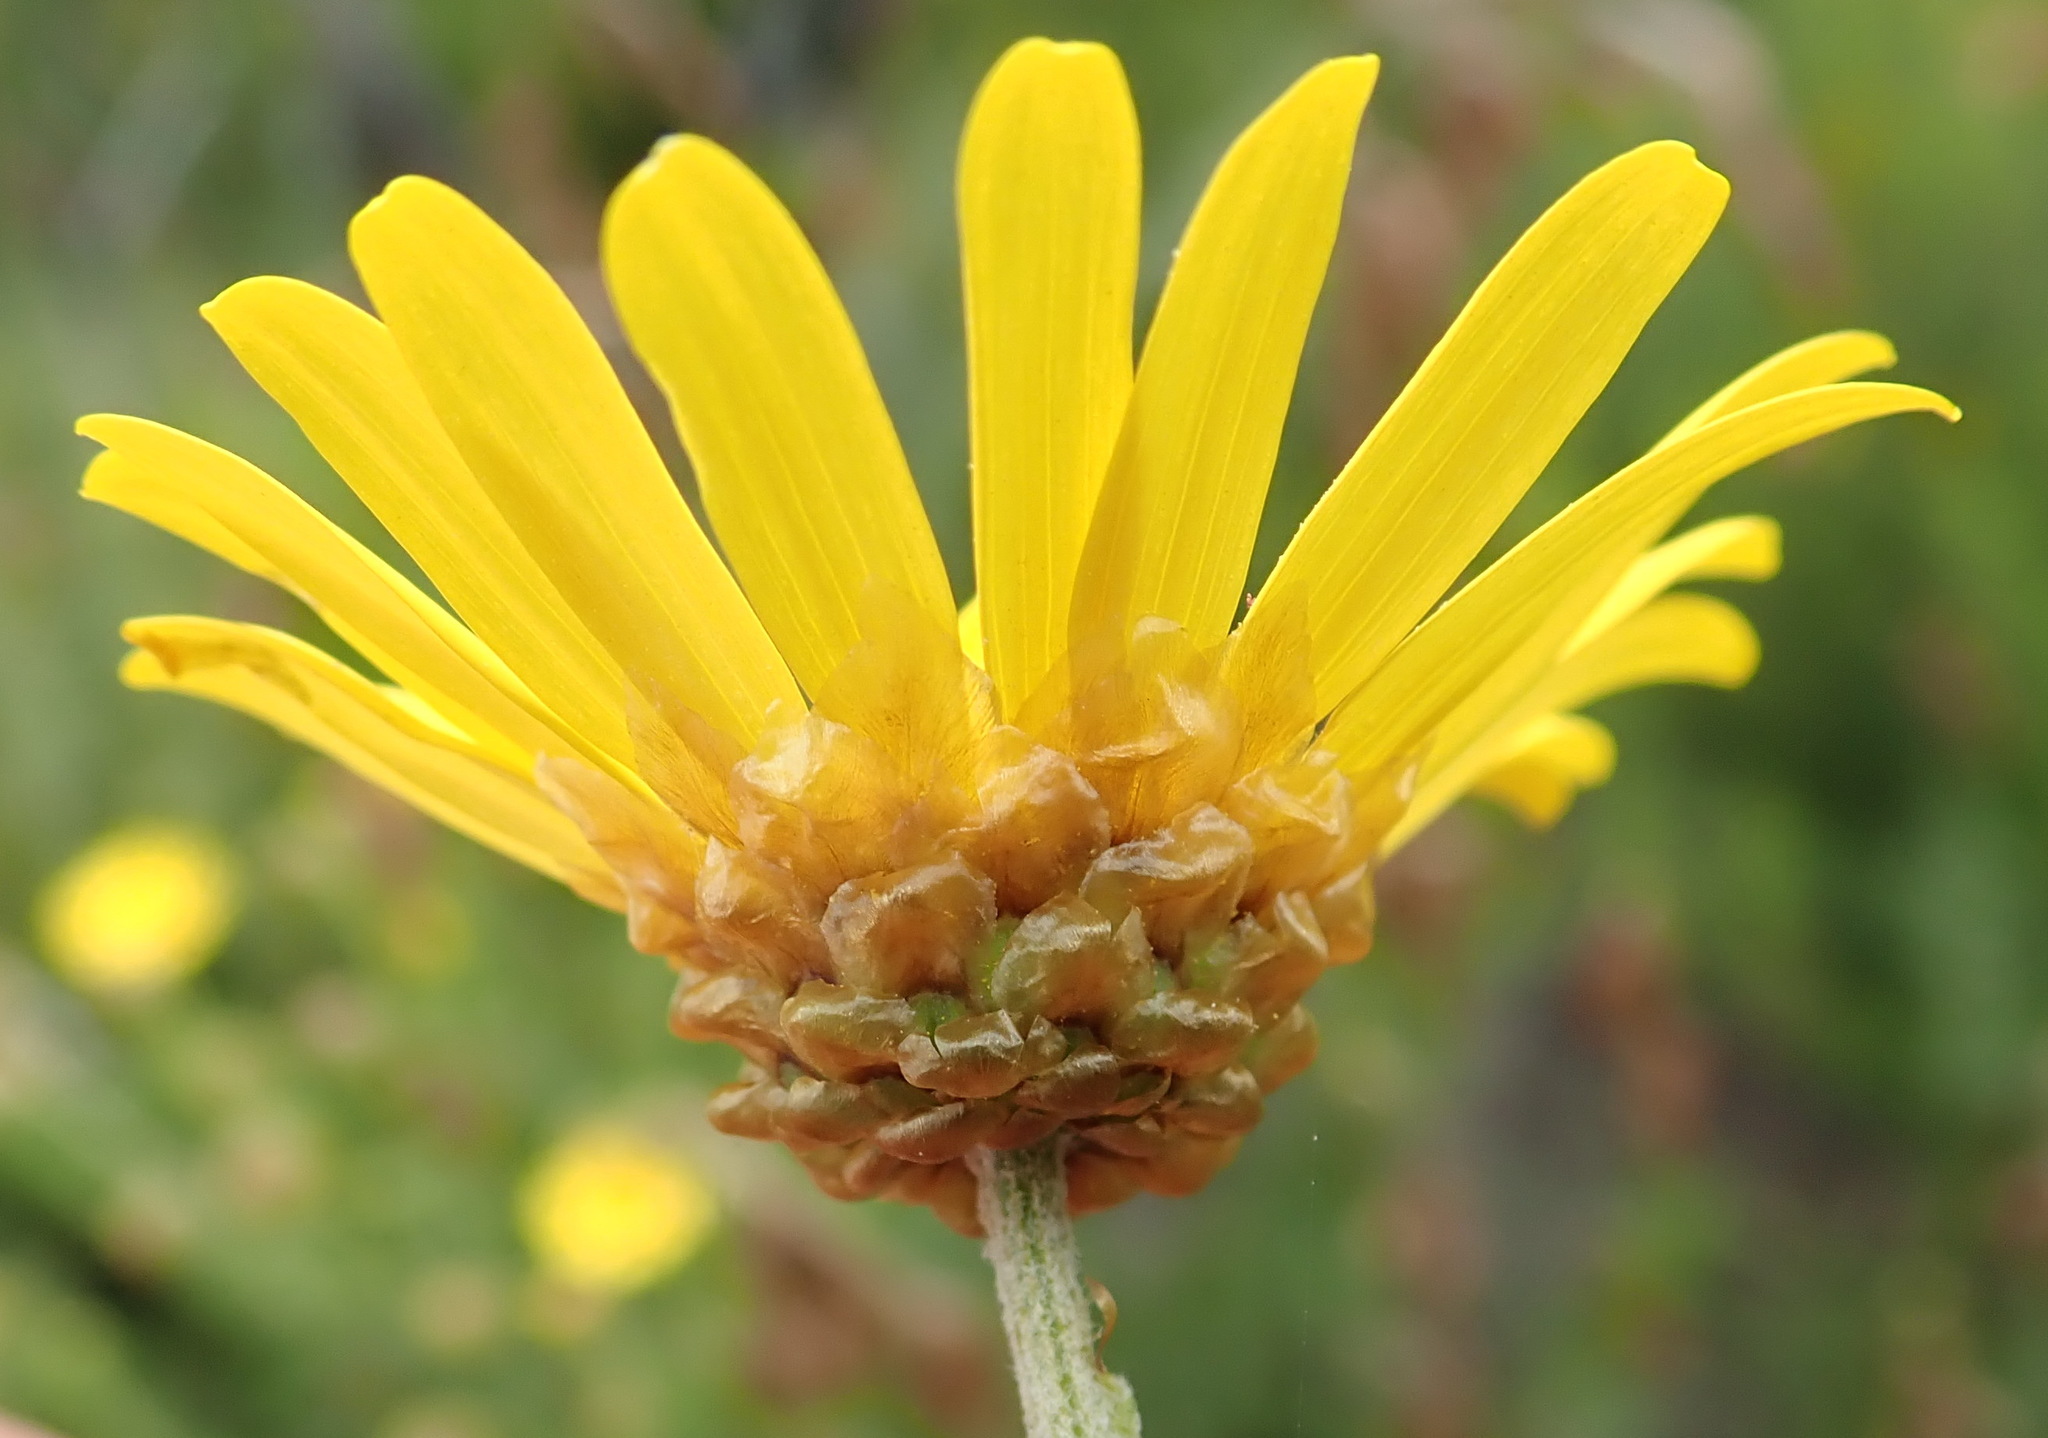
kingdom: Plantae
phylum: Tracheophyta
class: Magnoliopsida
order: Asterales
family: Asteraceae
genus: Ursinia
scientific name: Ursinia scariosa
